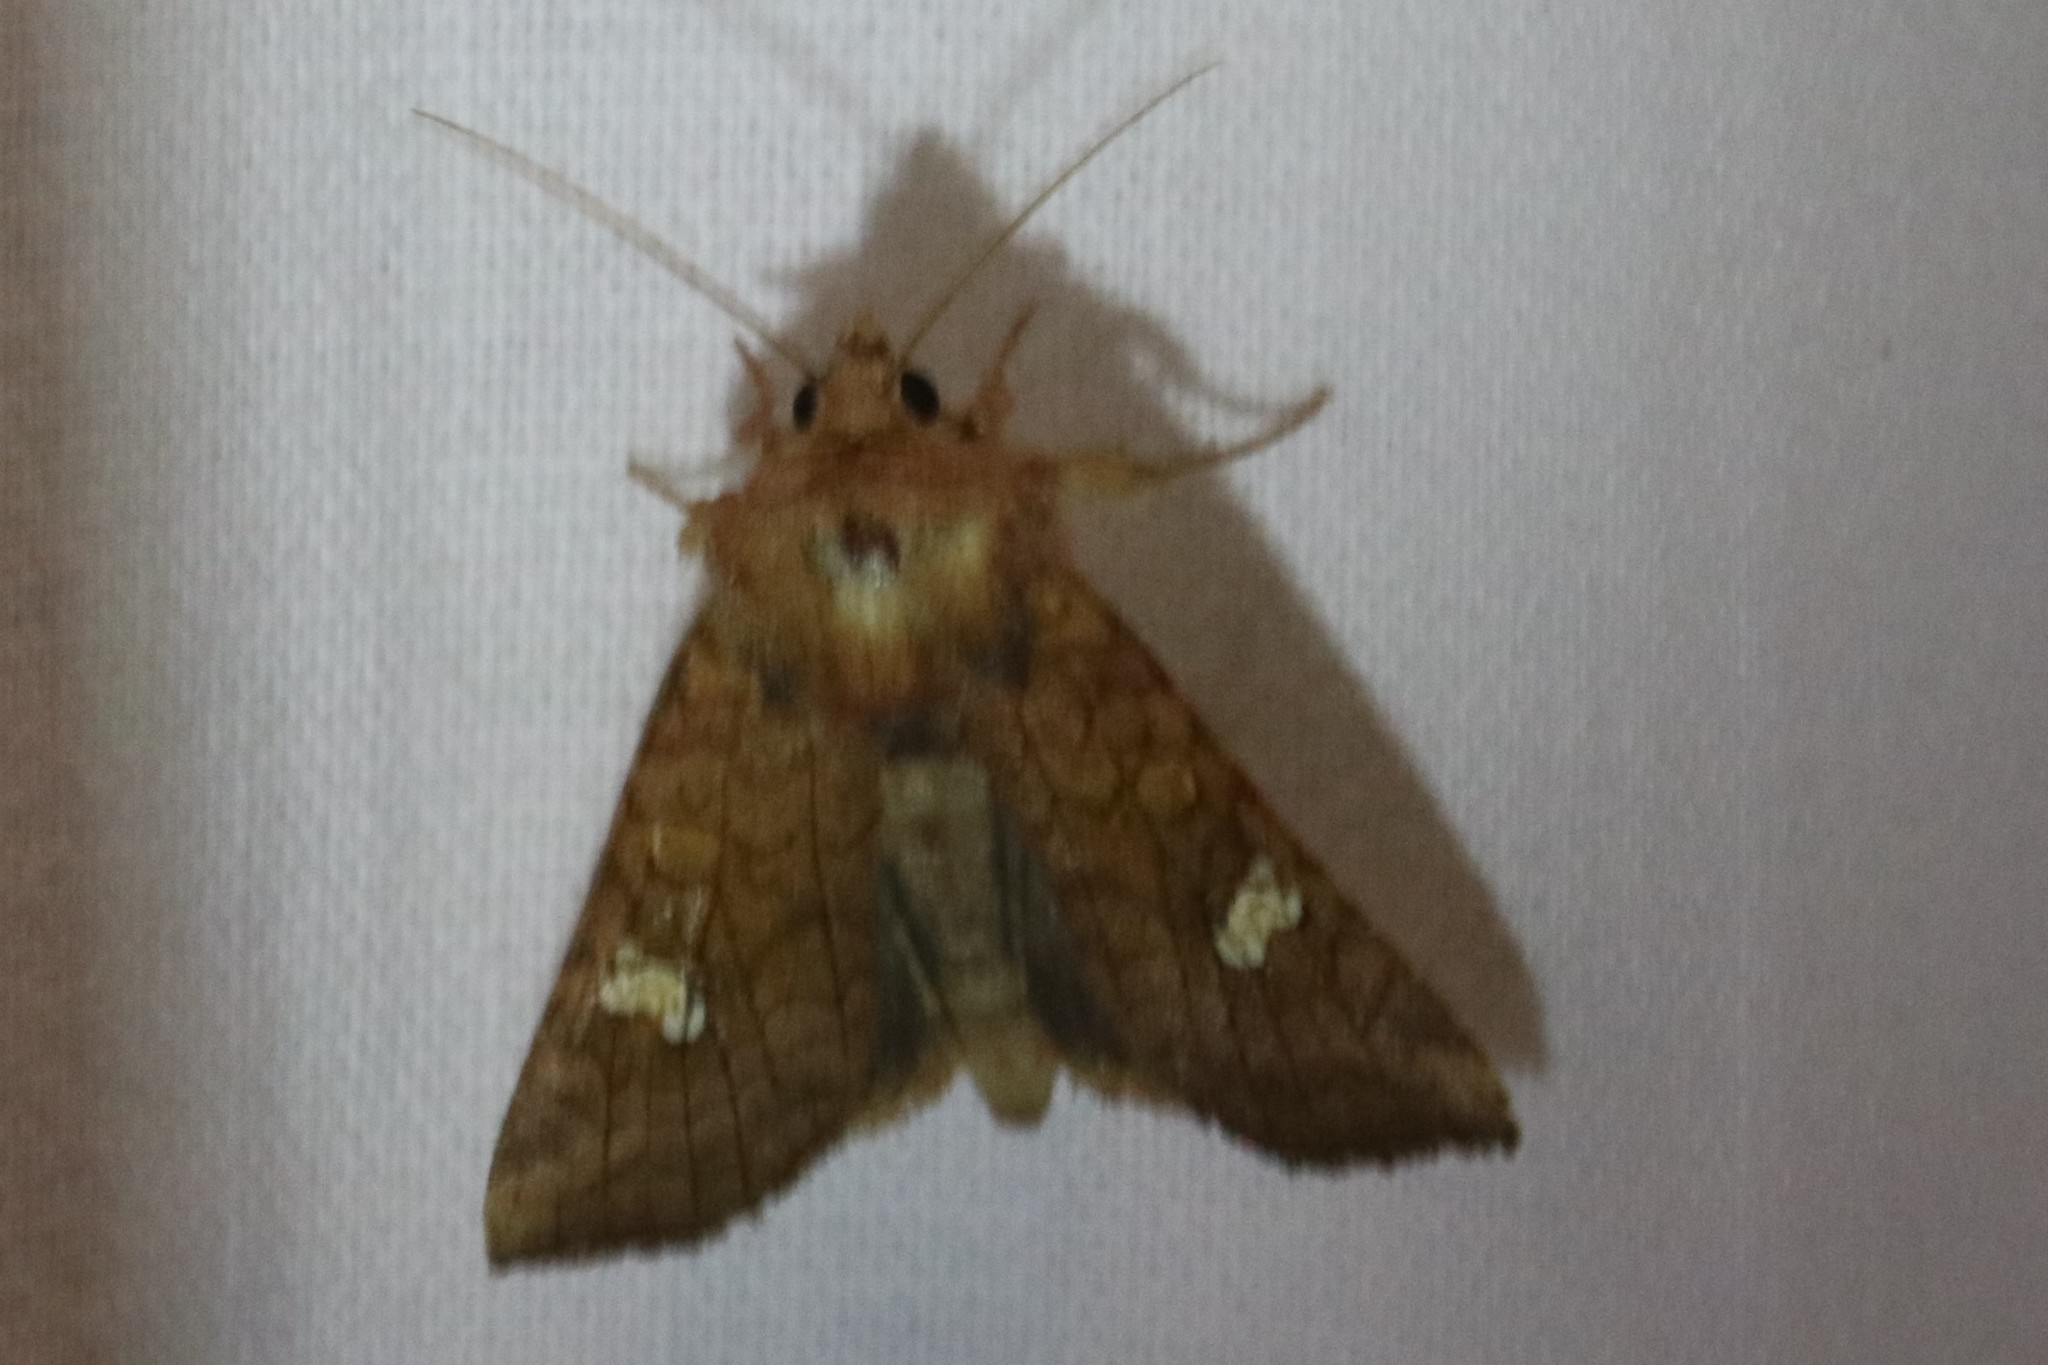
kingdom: Animalia
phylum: Arthropoda
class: Insecta
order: Lepidoptera
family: Noctuidae
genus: Amphipoea
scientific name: Amphipoea americana
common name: American ear moth
